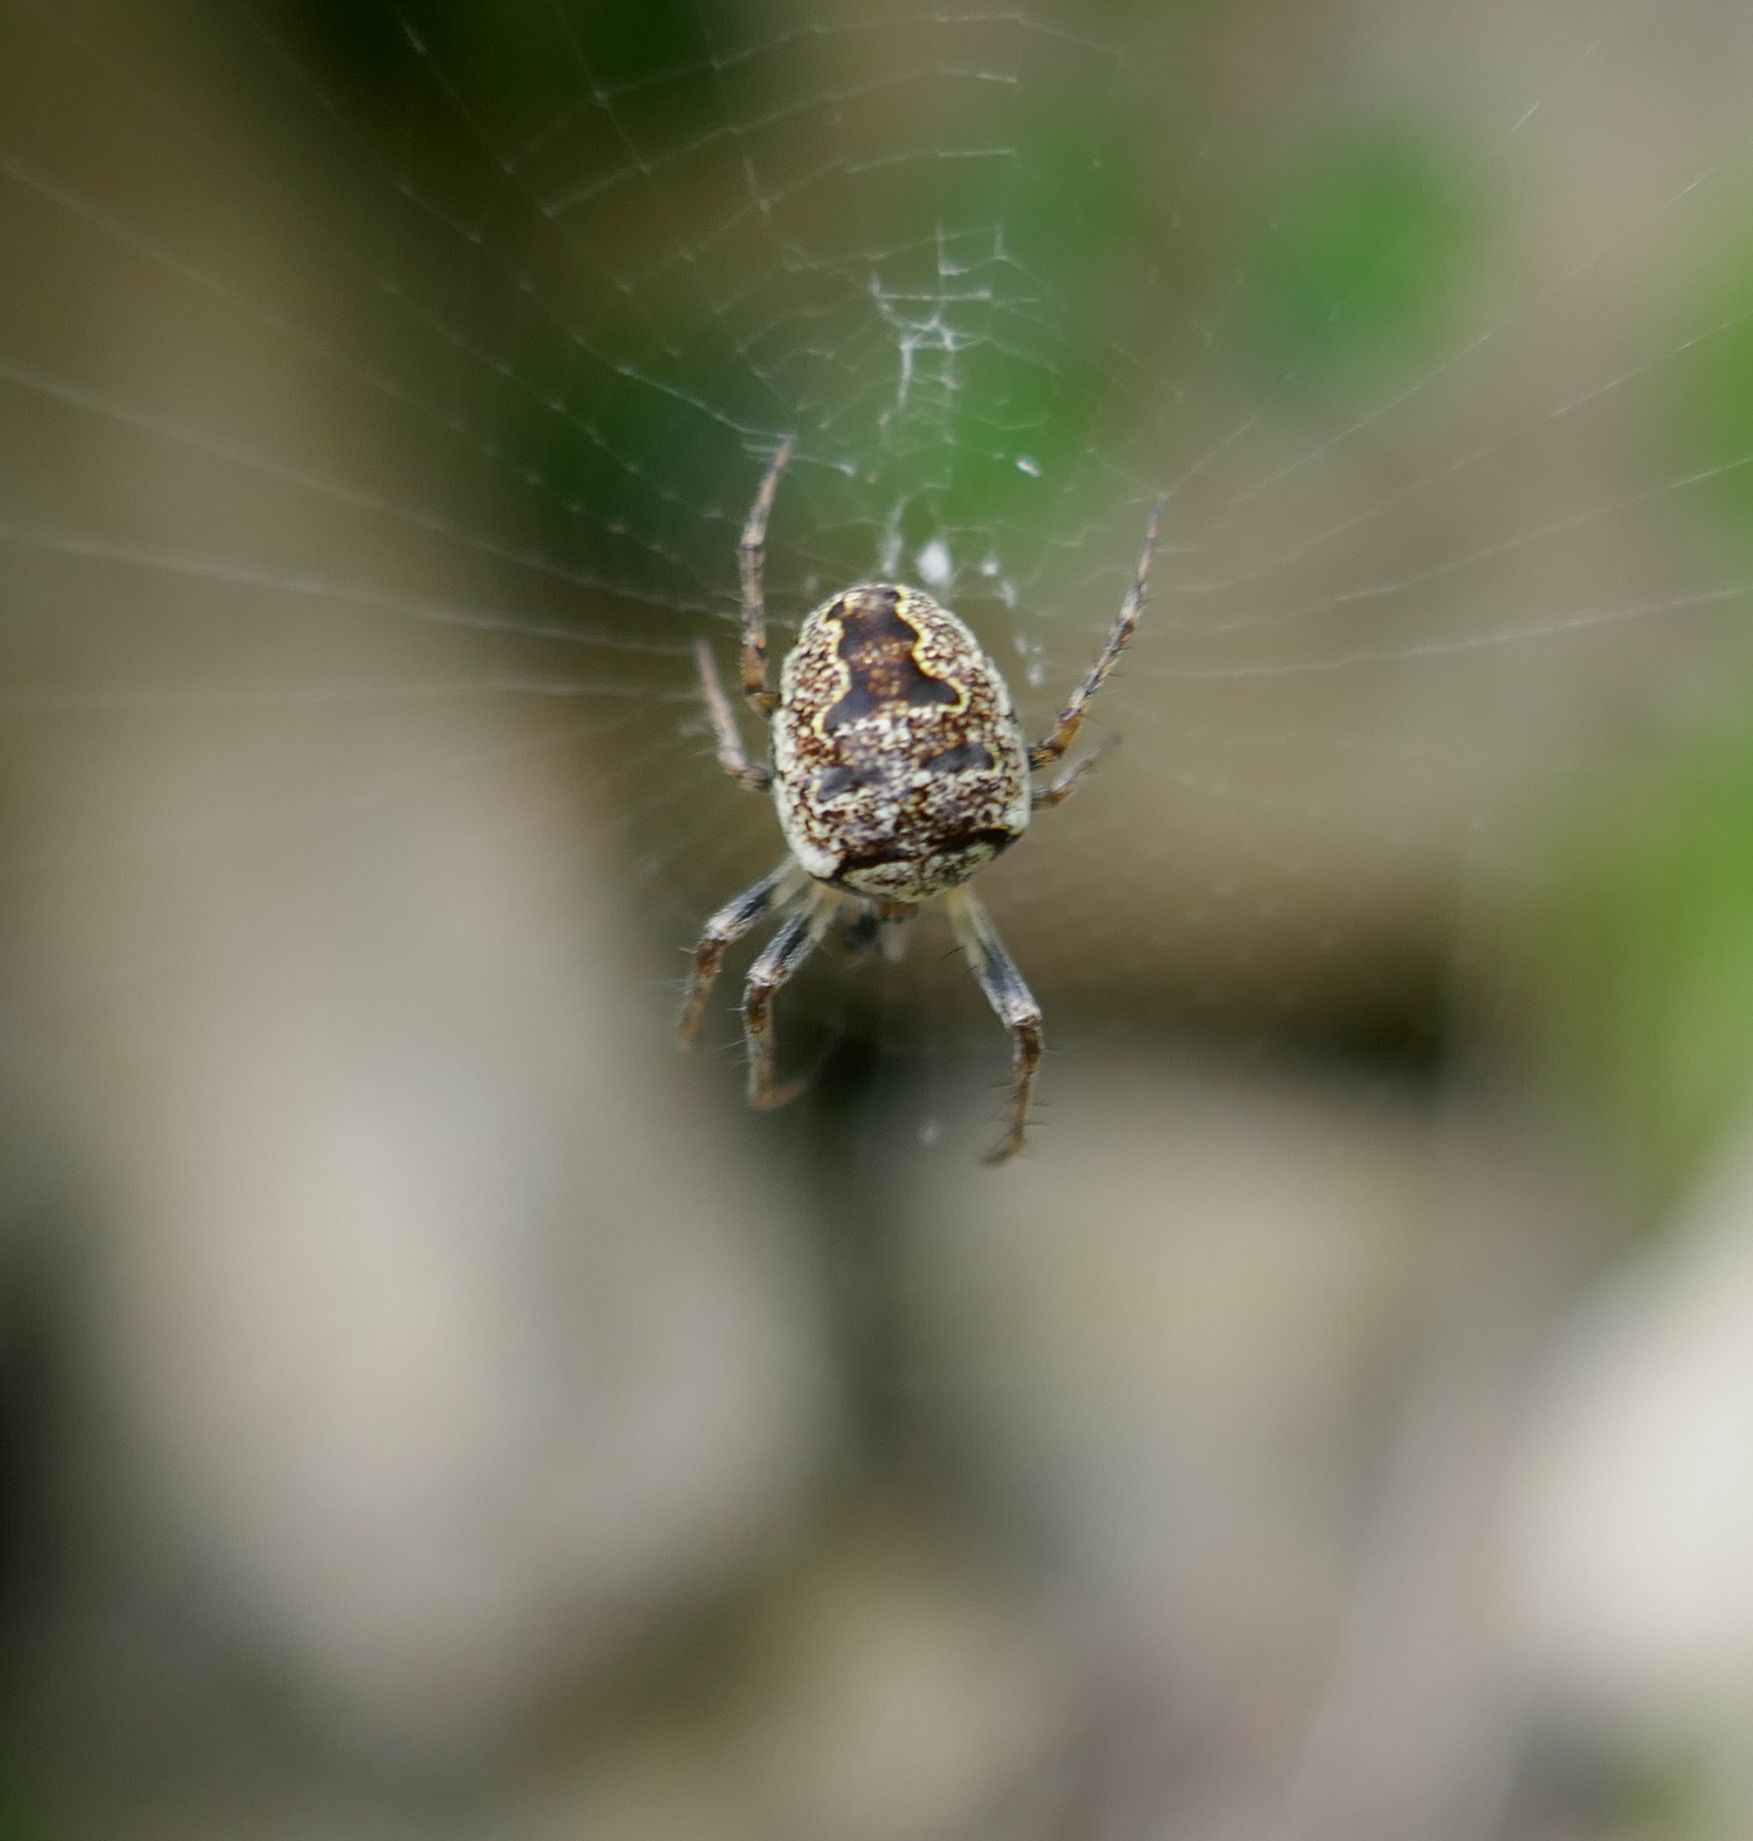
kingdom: Animalia
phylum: Arthropoda
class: Arachnida
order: Araneae
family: Araneidae
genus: Zilla
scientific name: Zilla diodia
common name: Zilla diodia
